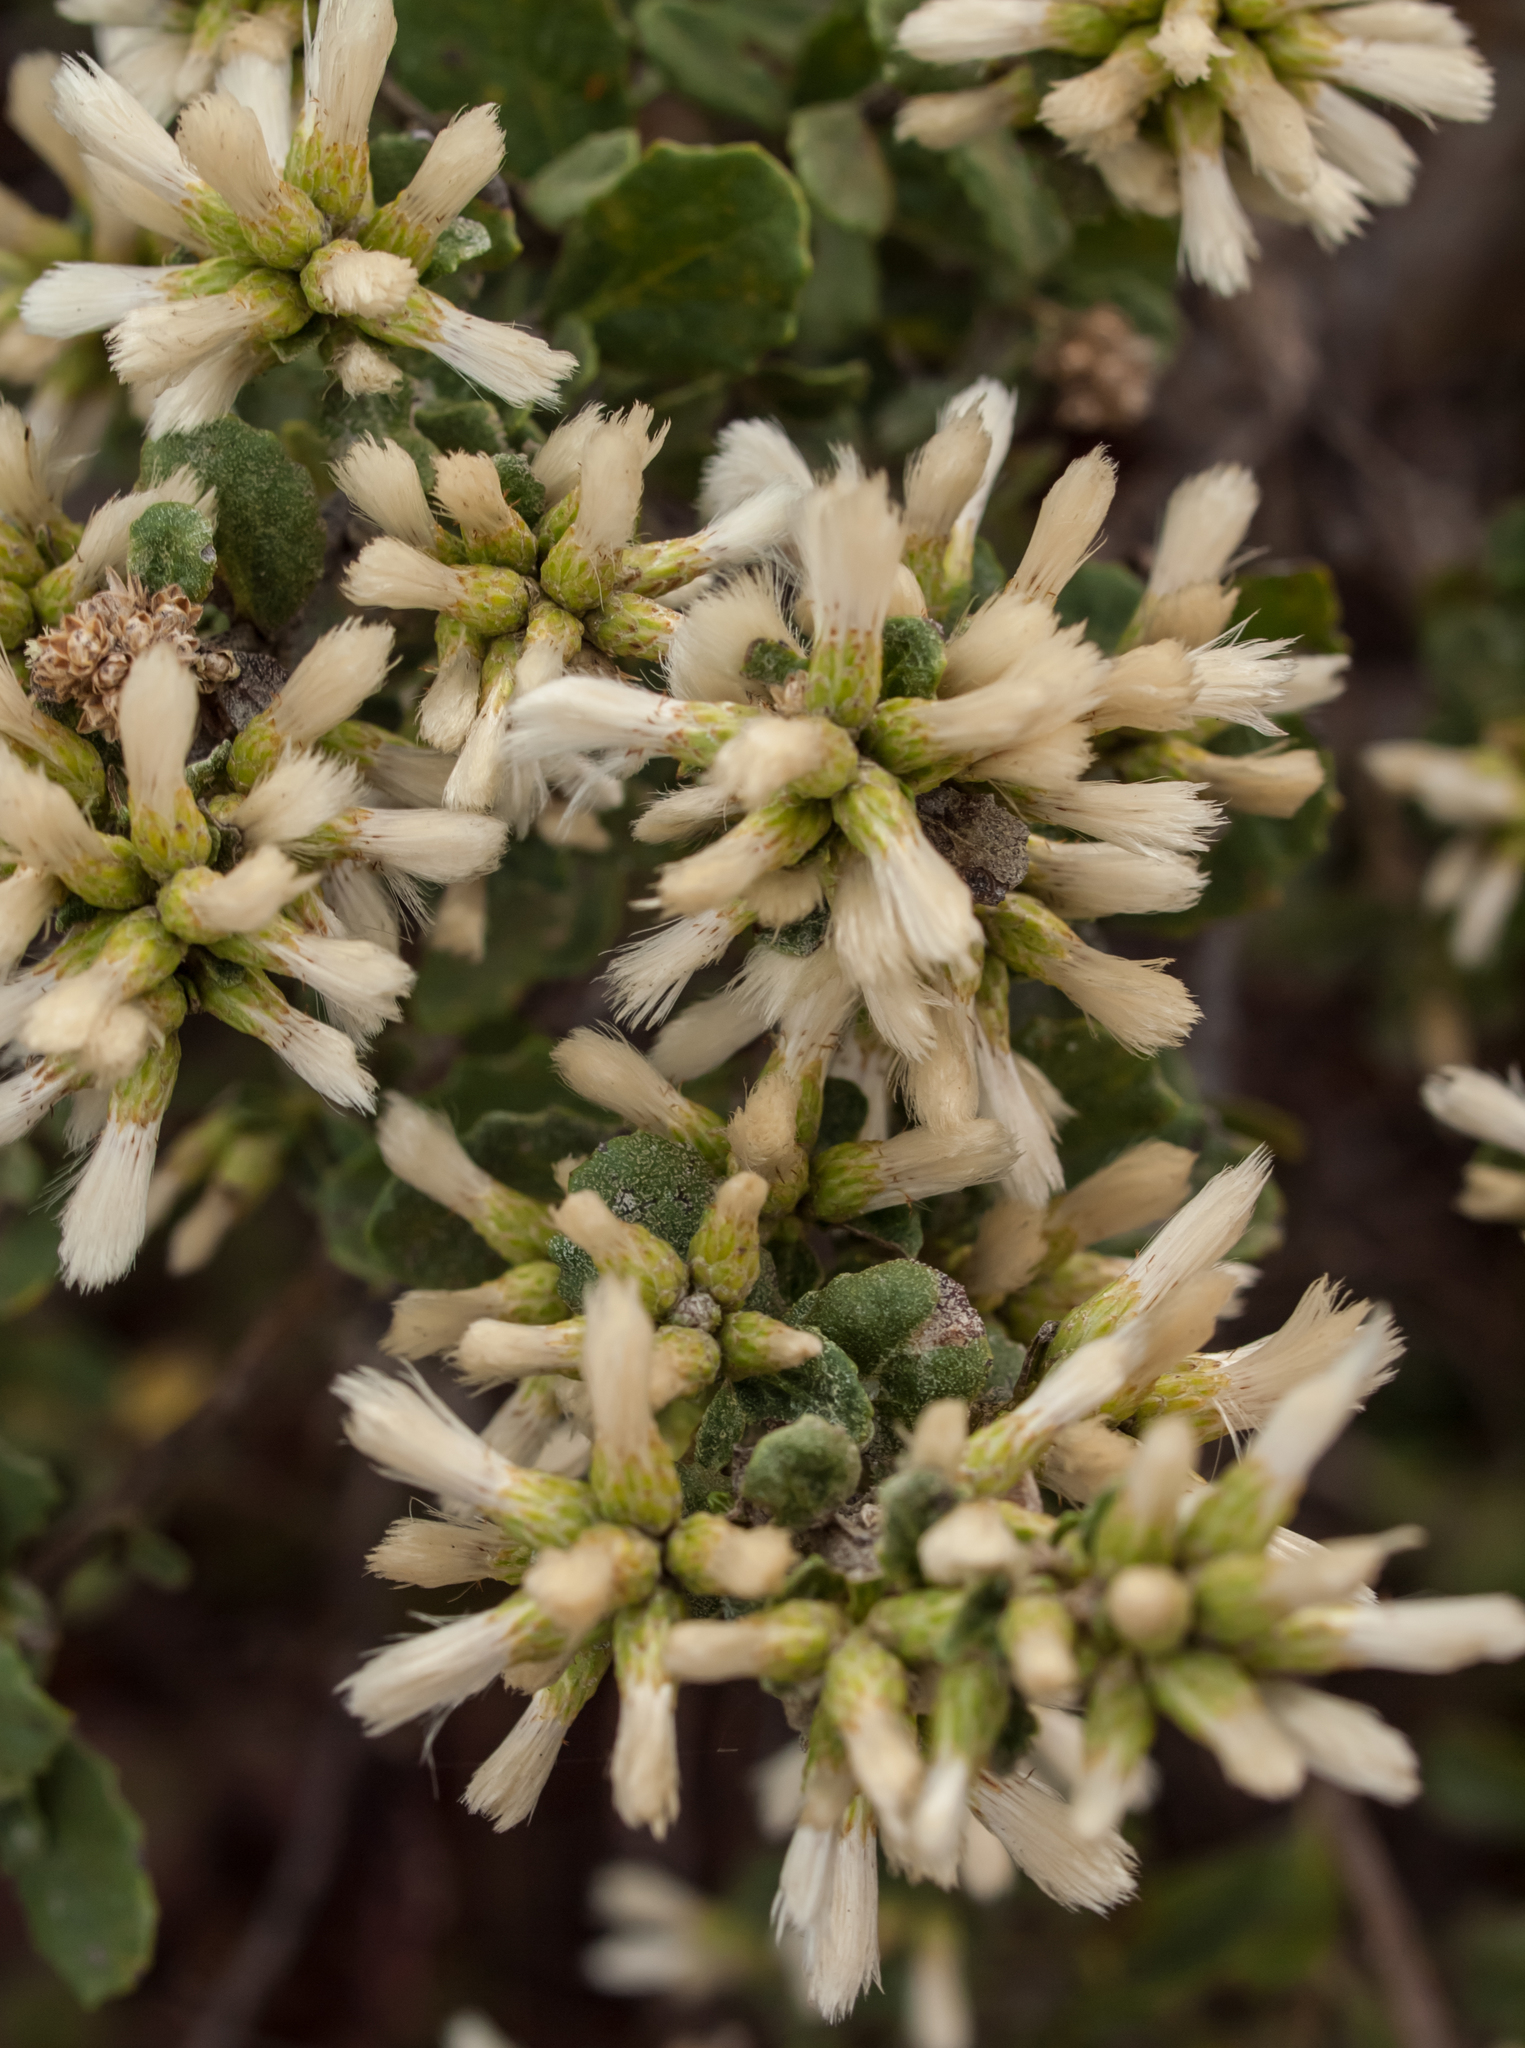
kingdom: Plantae
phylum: Tracheophyta
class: Magnoliopsida
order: Asterales
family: Asteraceae
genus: Baccharis
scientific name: Baccharis pilularis
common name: Coyotebrush
